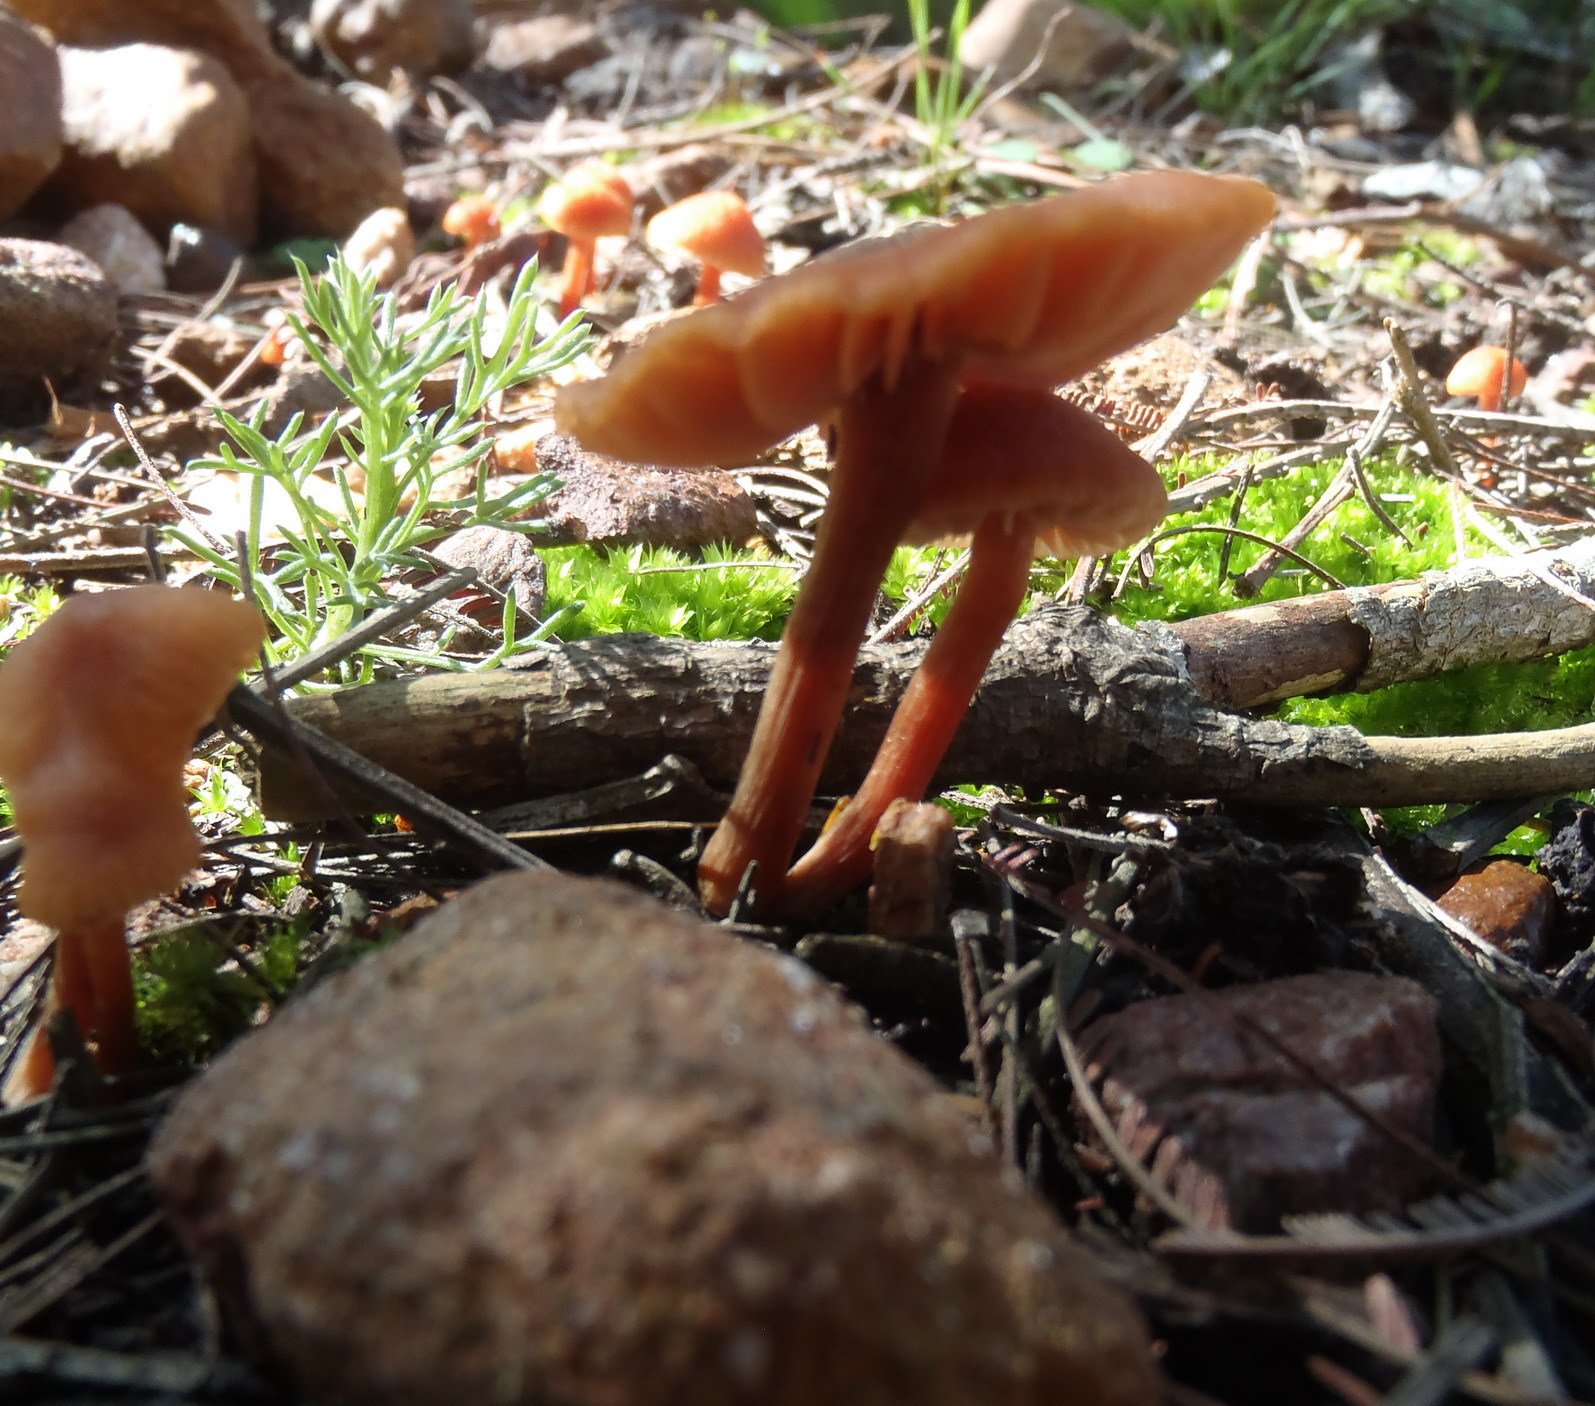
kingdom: Fungi
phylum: Basidiomycota
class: Agaricomycetes
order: Agaricales
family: Hydnangiaceae
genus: Laccaria
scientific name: Laccaria laccata
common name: Deceiver
